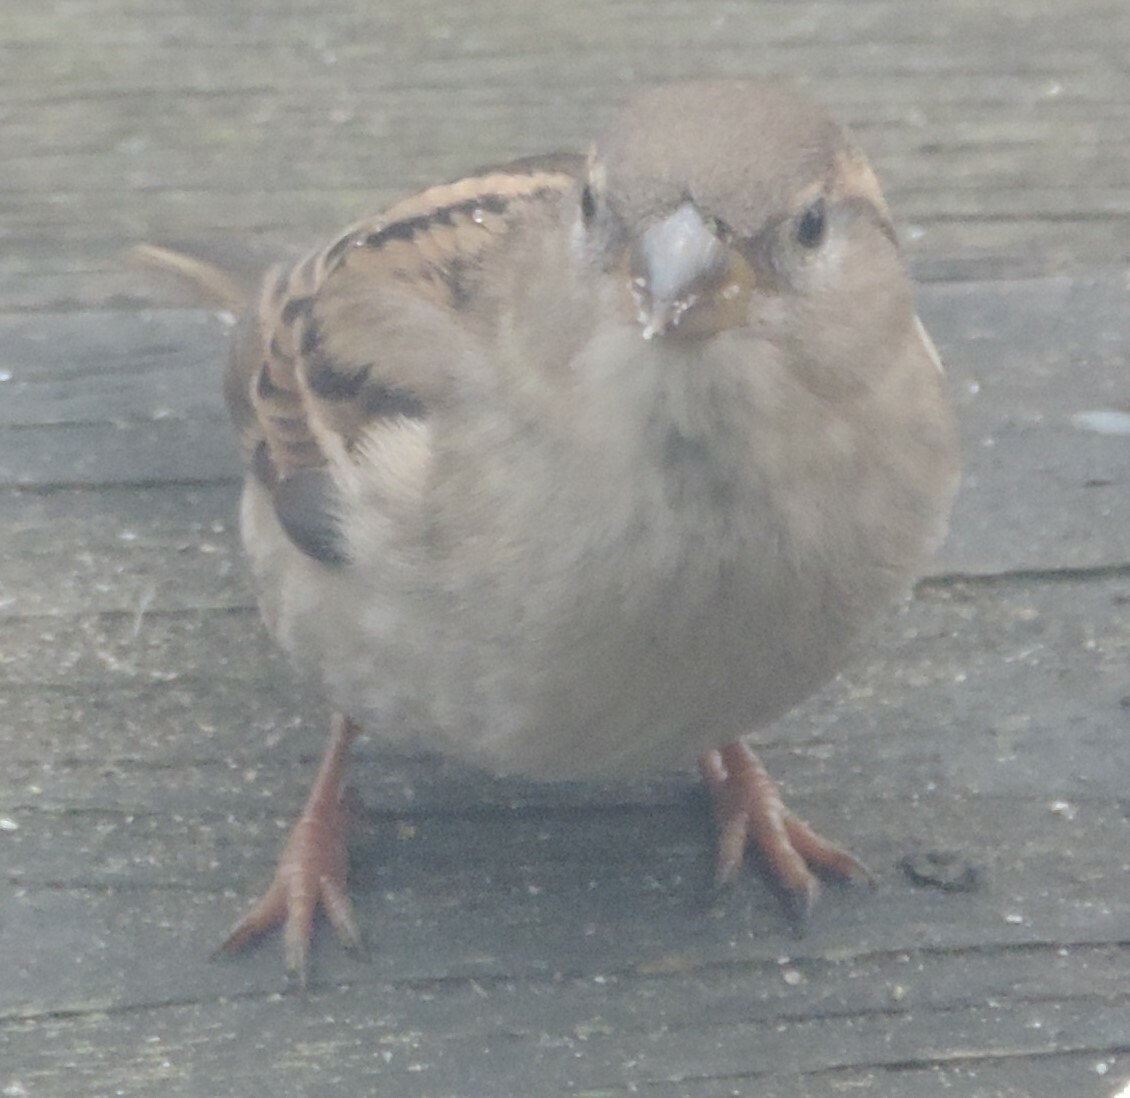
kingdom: Animalia
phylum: Chordata
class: Aves
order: Passeriformes
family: Passeridae
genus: Passer
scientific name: Passer domesticus
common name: House sparrow
